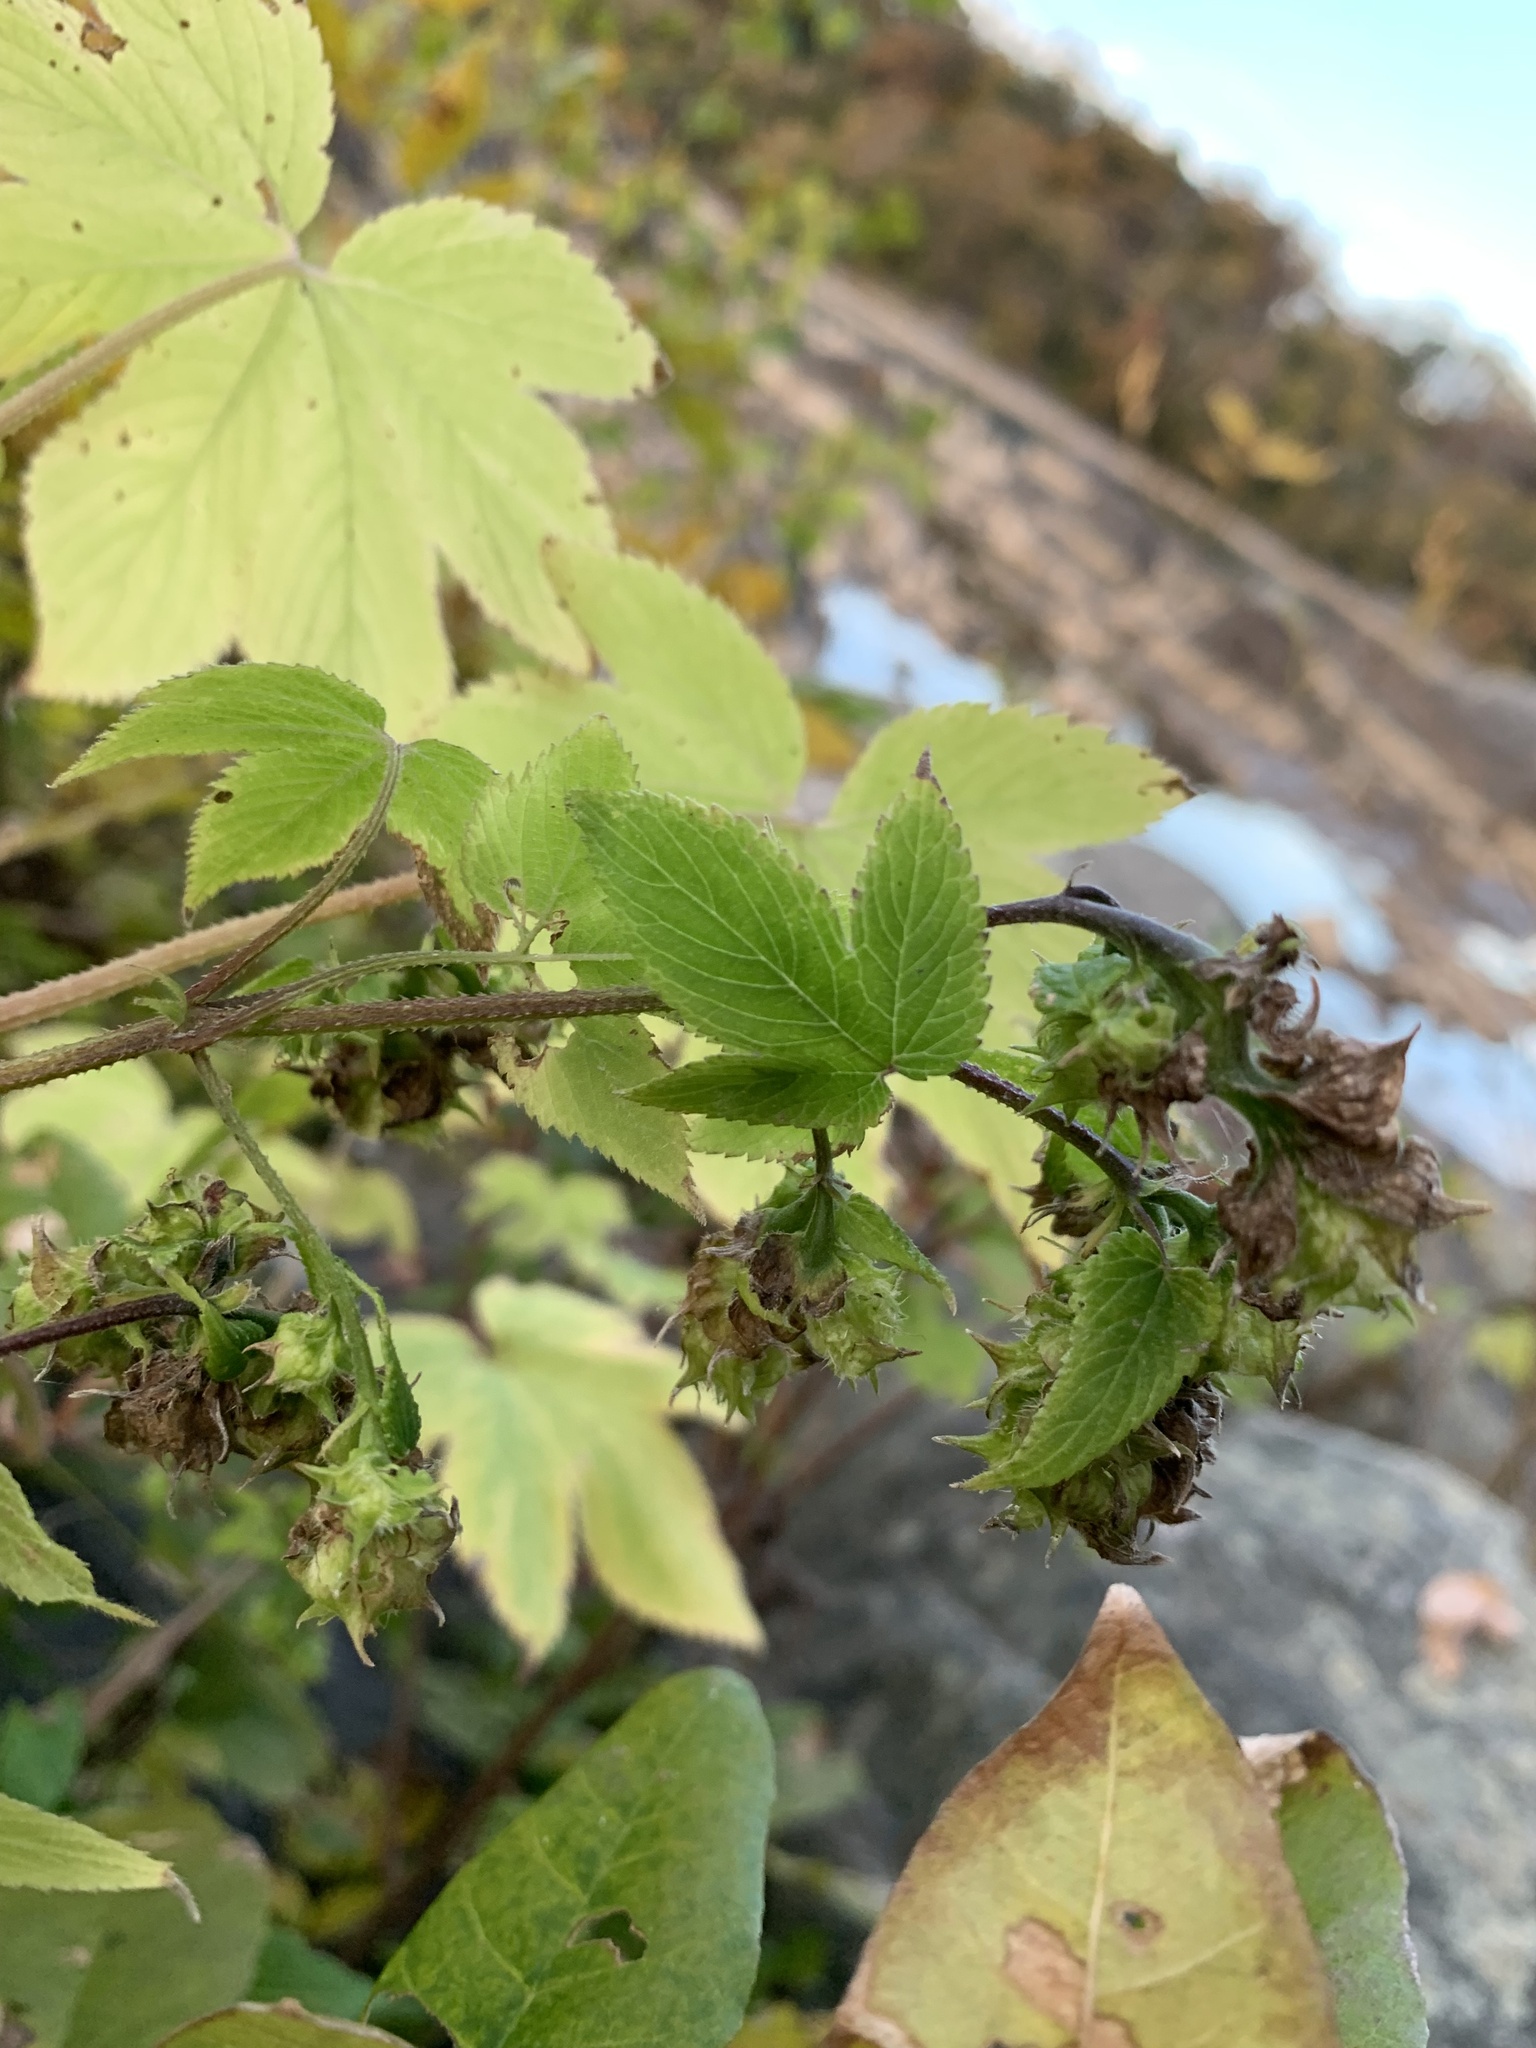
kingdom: Plantae
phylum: Tracheophyta
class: Magnoliopsida
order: Rosales
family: Cannabaceae
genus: Humulus
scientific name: Humulus scandens
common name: Japanese hop
